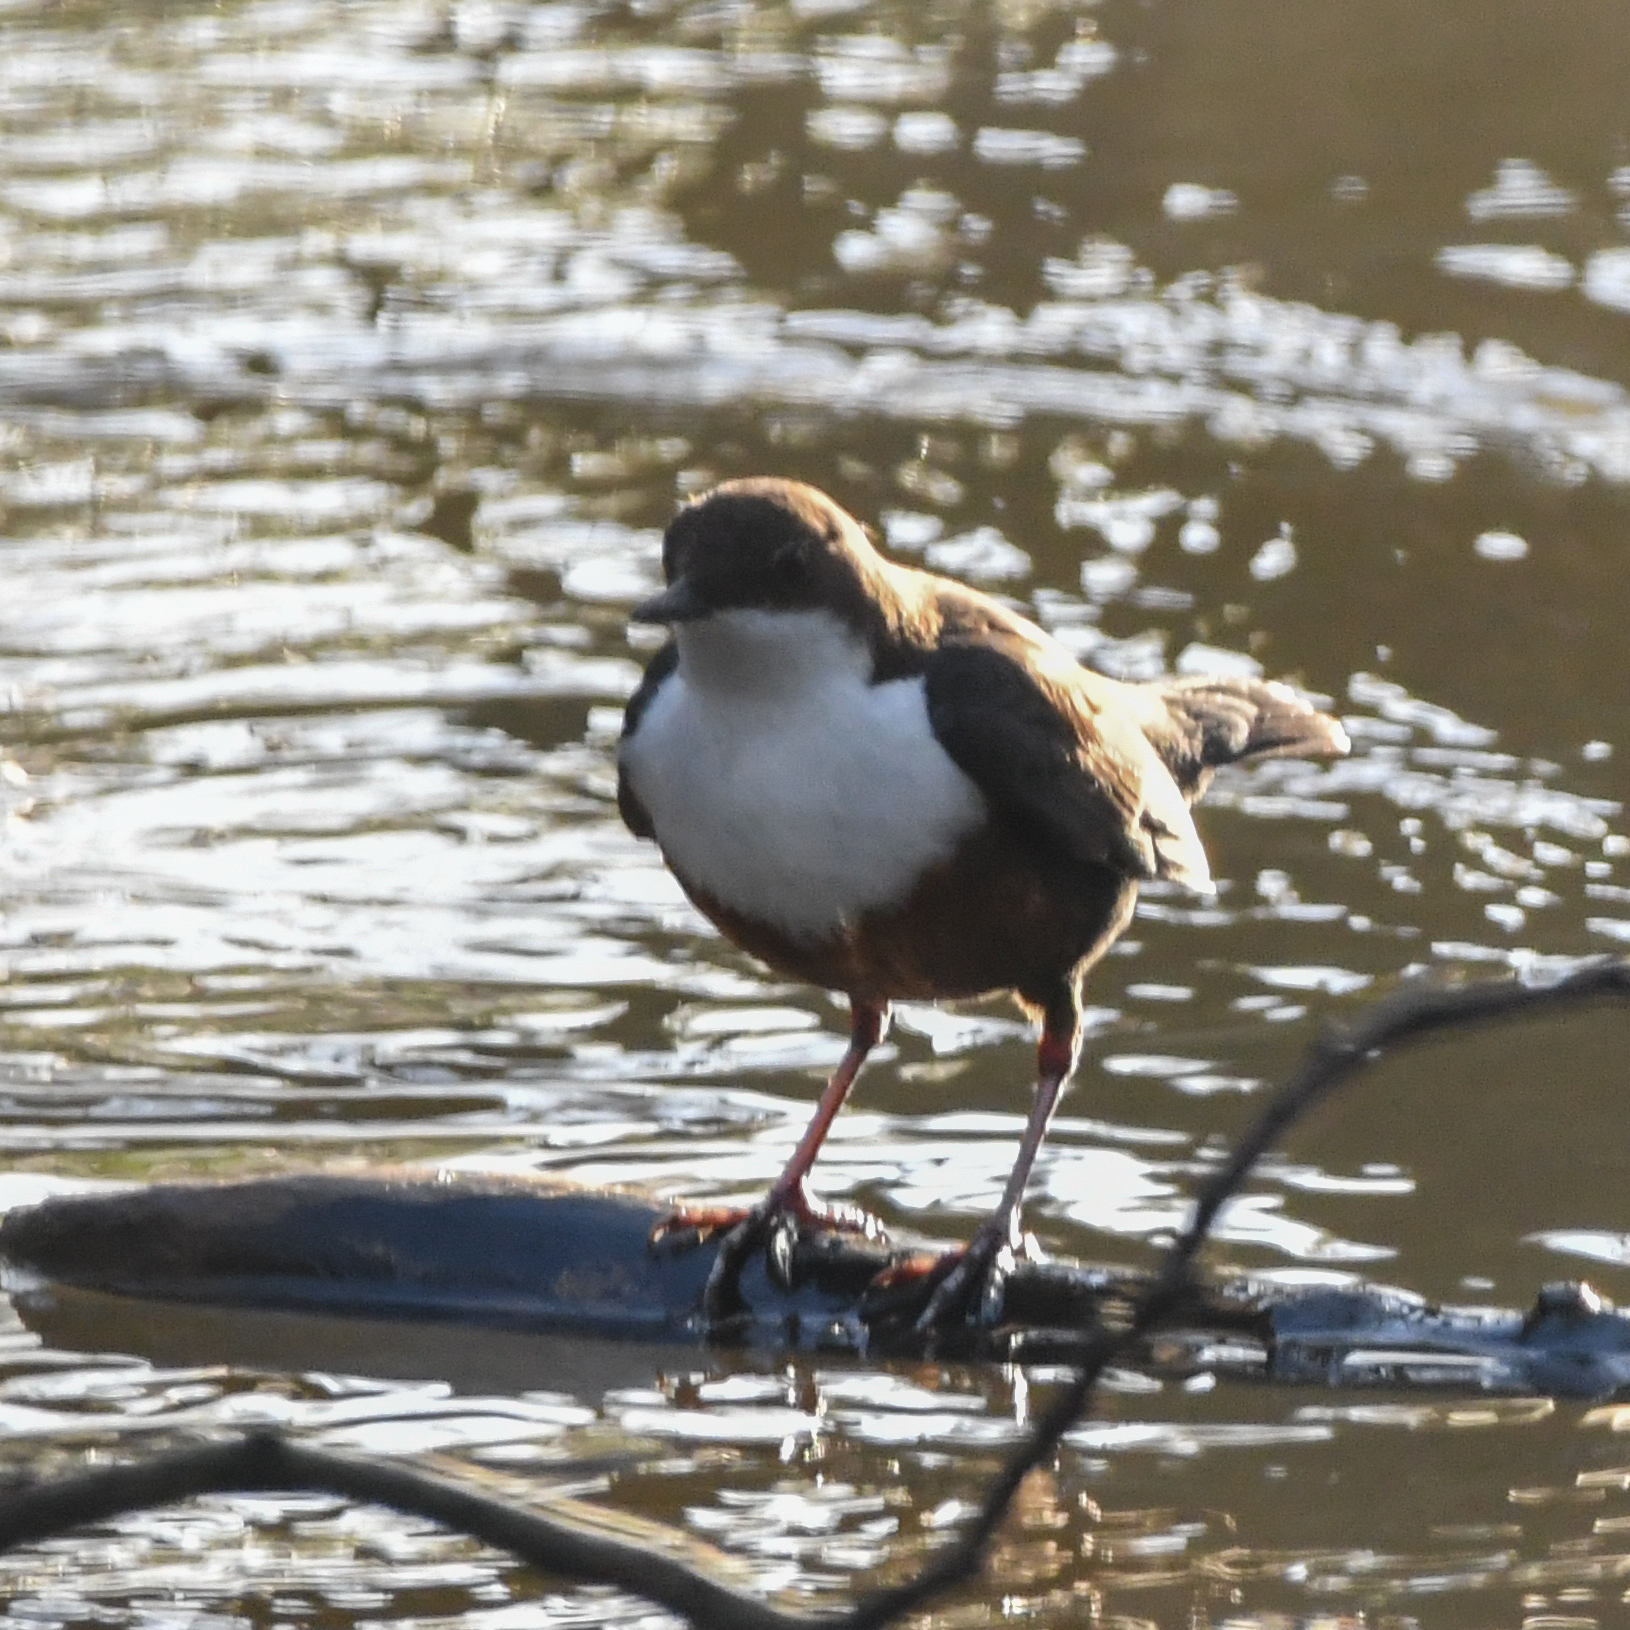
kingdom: Animalia
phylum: Chordata
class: Aves
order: Passeriformes
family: Cinclidae
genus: Cinclus
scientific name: Cinclus cinclus
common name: White-throated dipper
